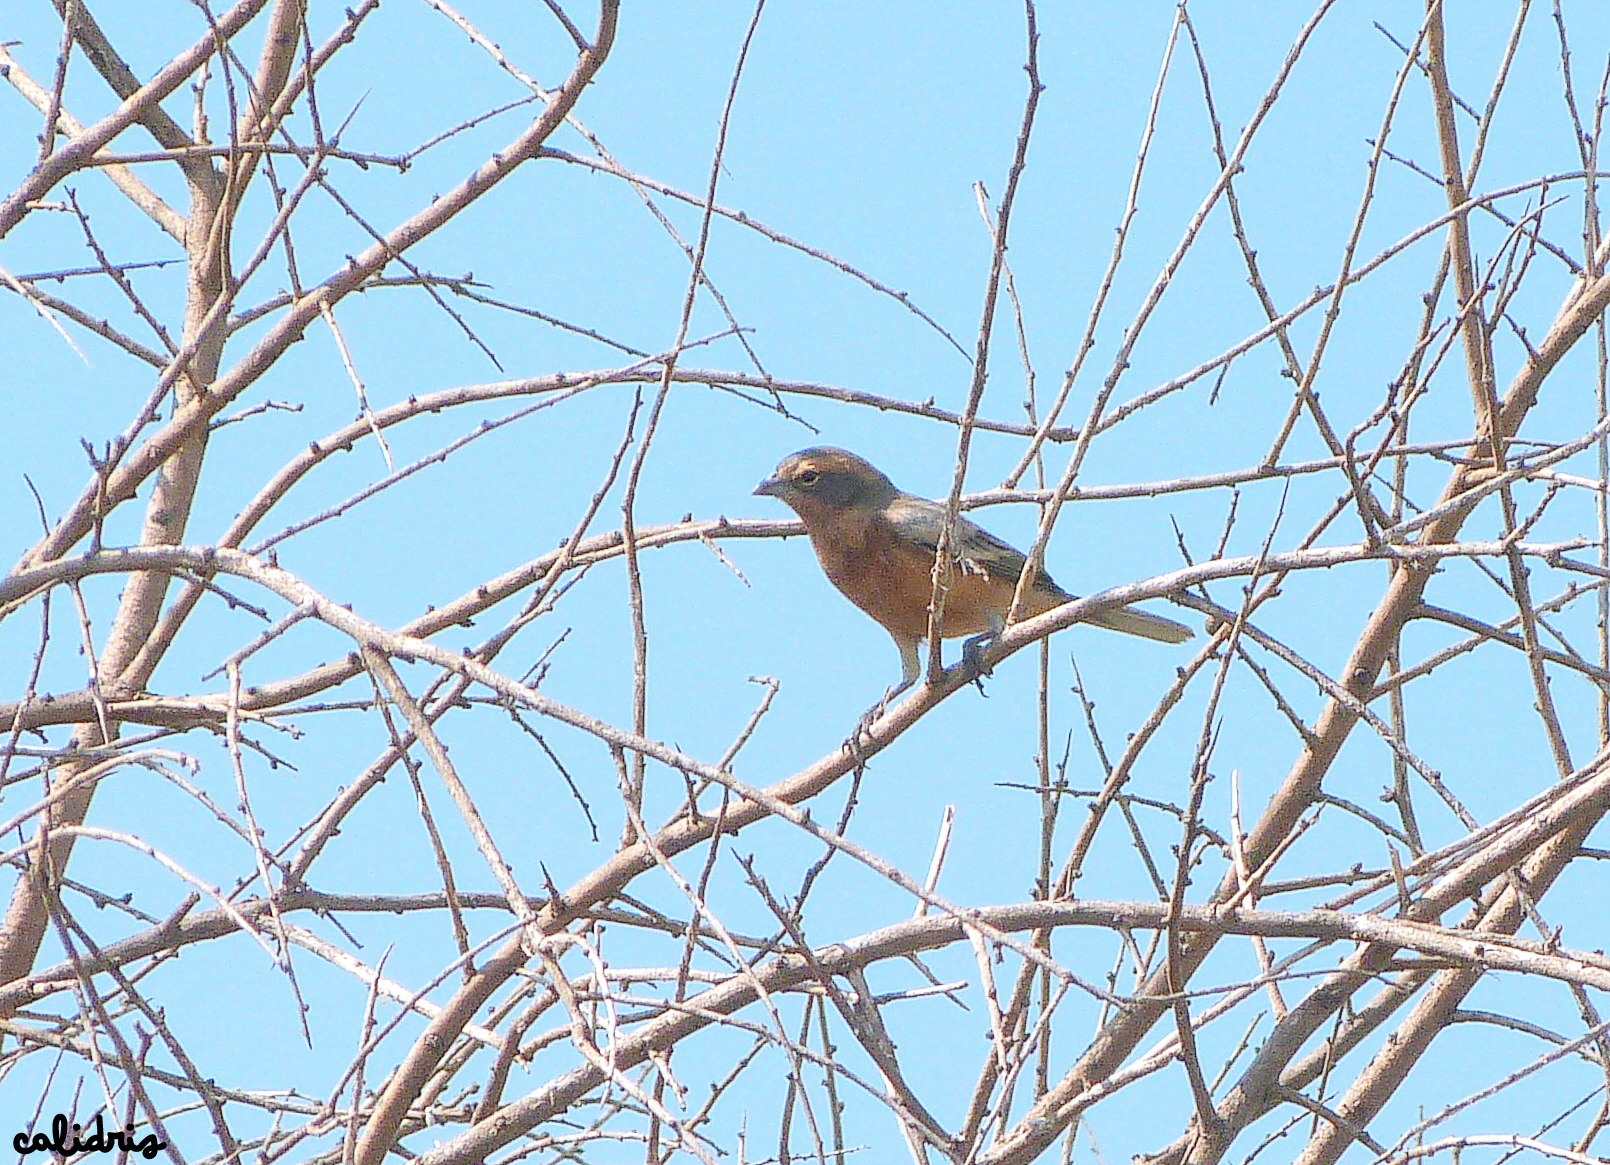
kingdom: Animalia
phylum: Chordata
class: Aves
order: Passeriformes
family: Thraupidae
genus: Poospiza
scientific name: Poospiza ornata
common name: Cinnamon warbling finch
